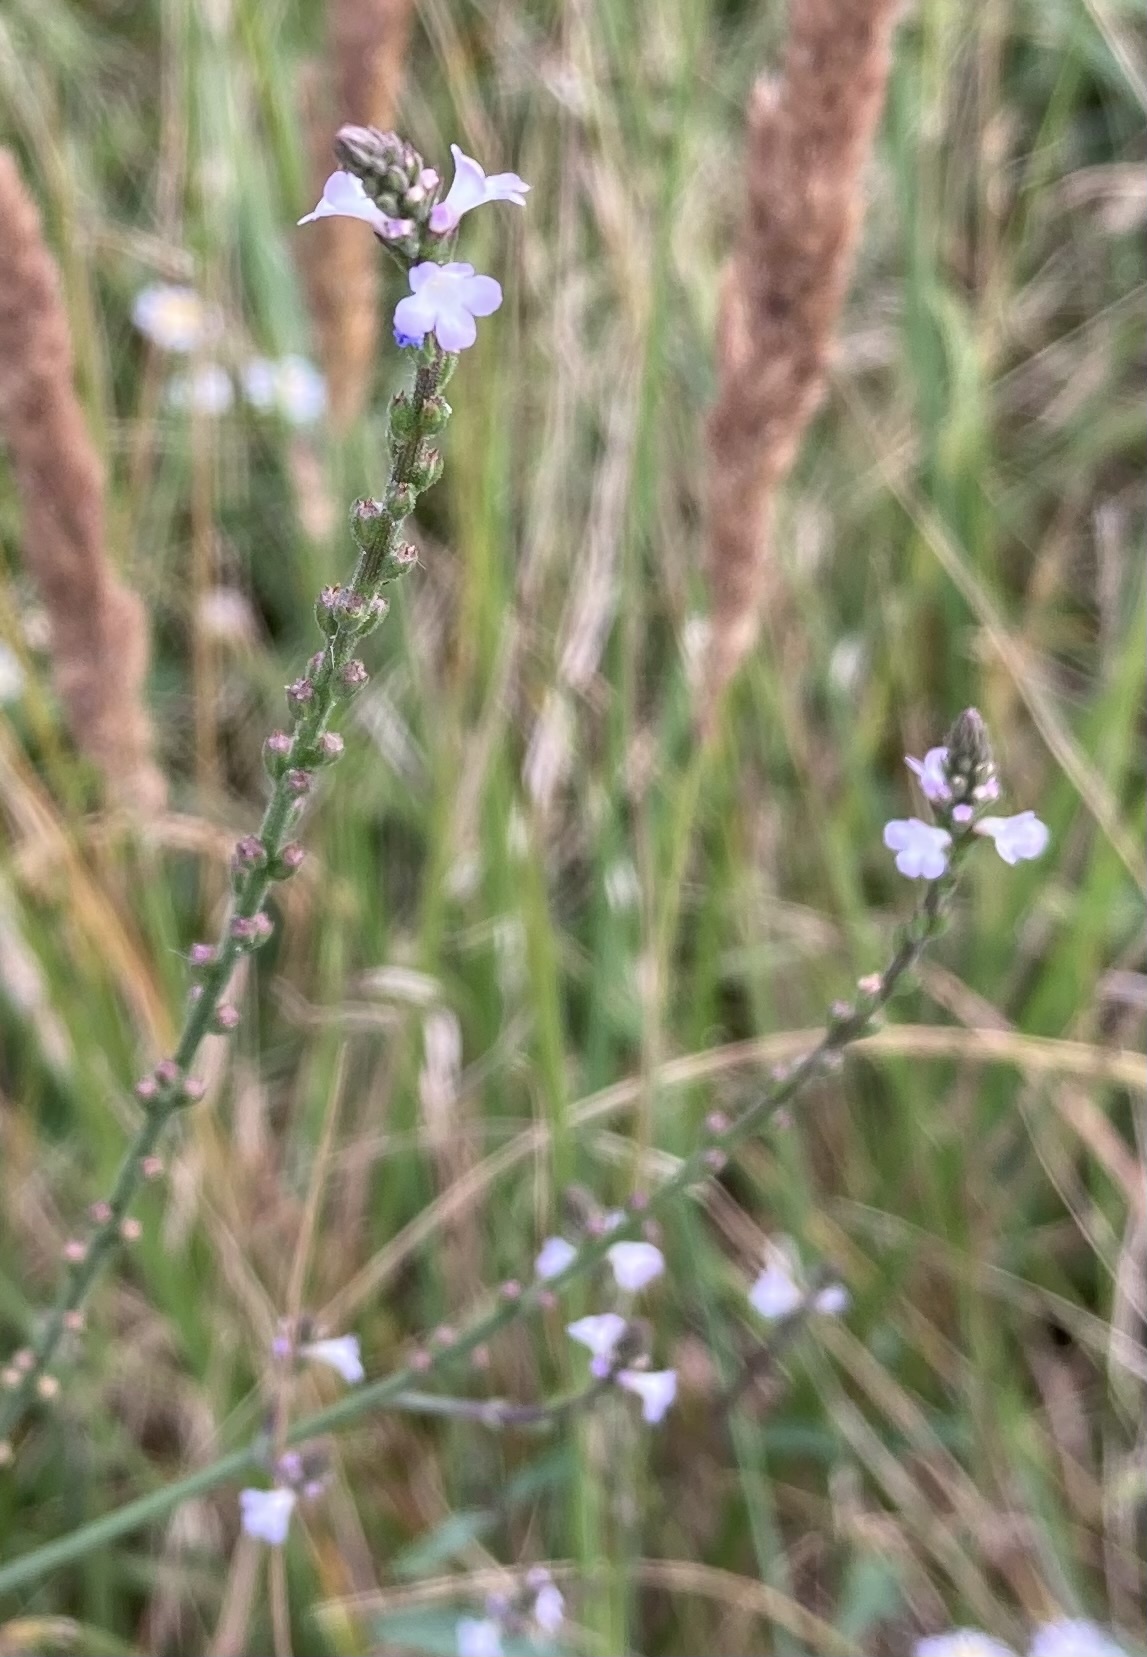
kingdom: Plantae
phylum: Tracheophyta
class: Magnoliopsida
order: Lamiales
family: Verbenaceae
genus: Verbena
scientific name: Verbena officinalis
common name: Vervain
